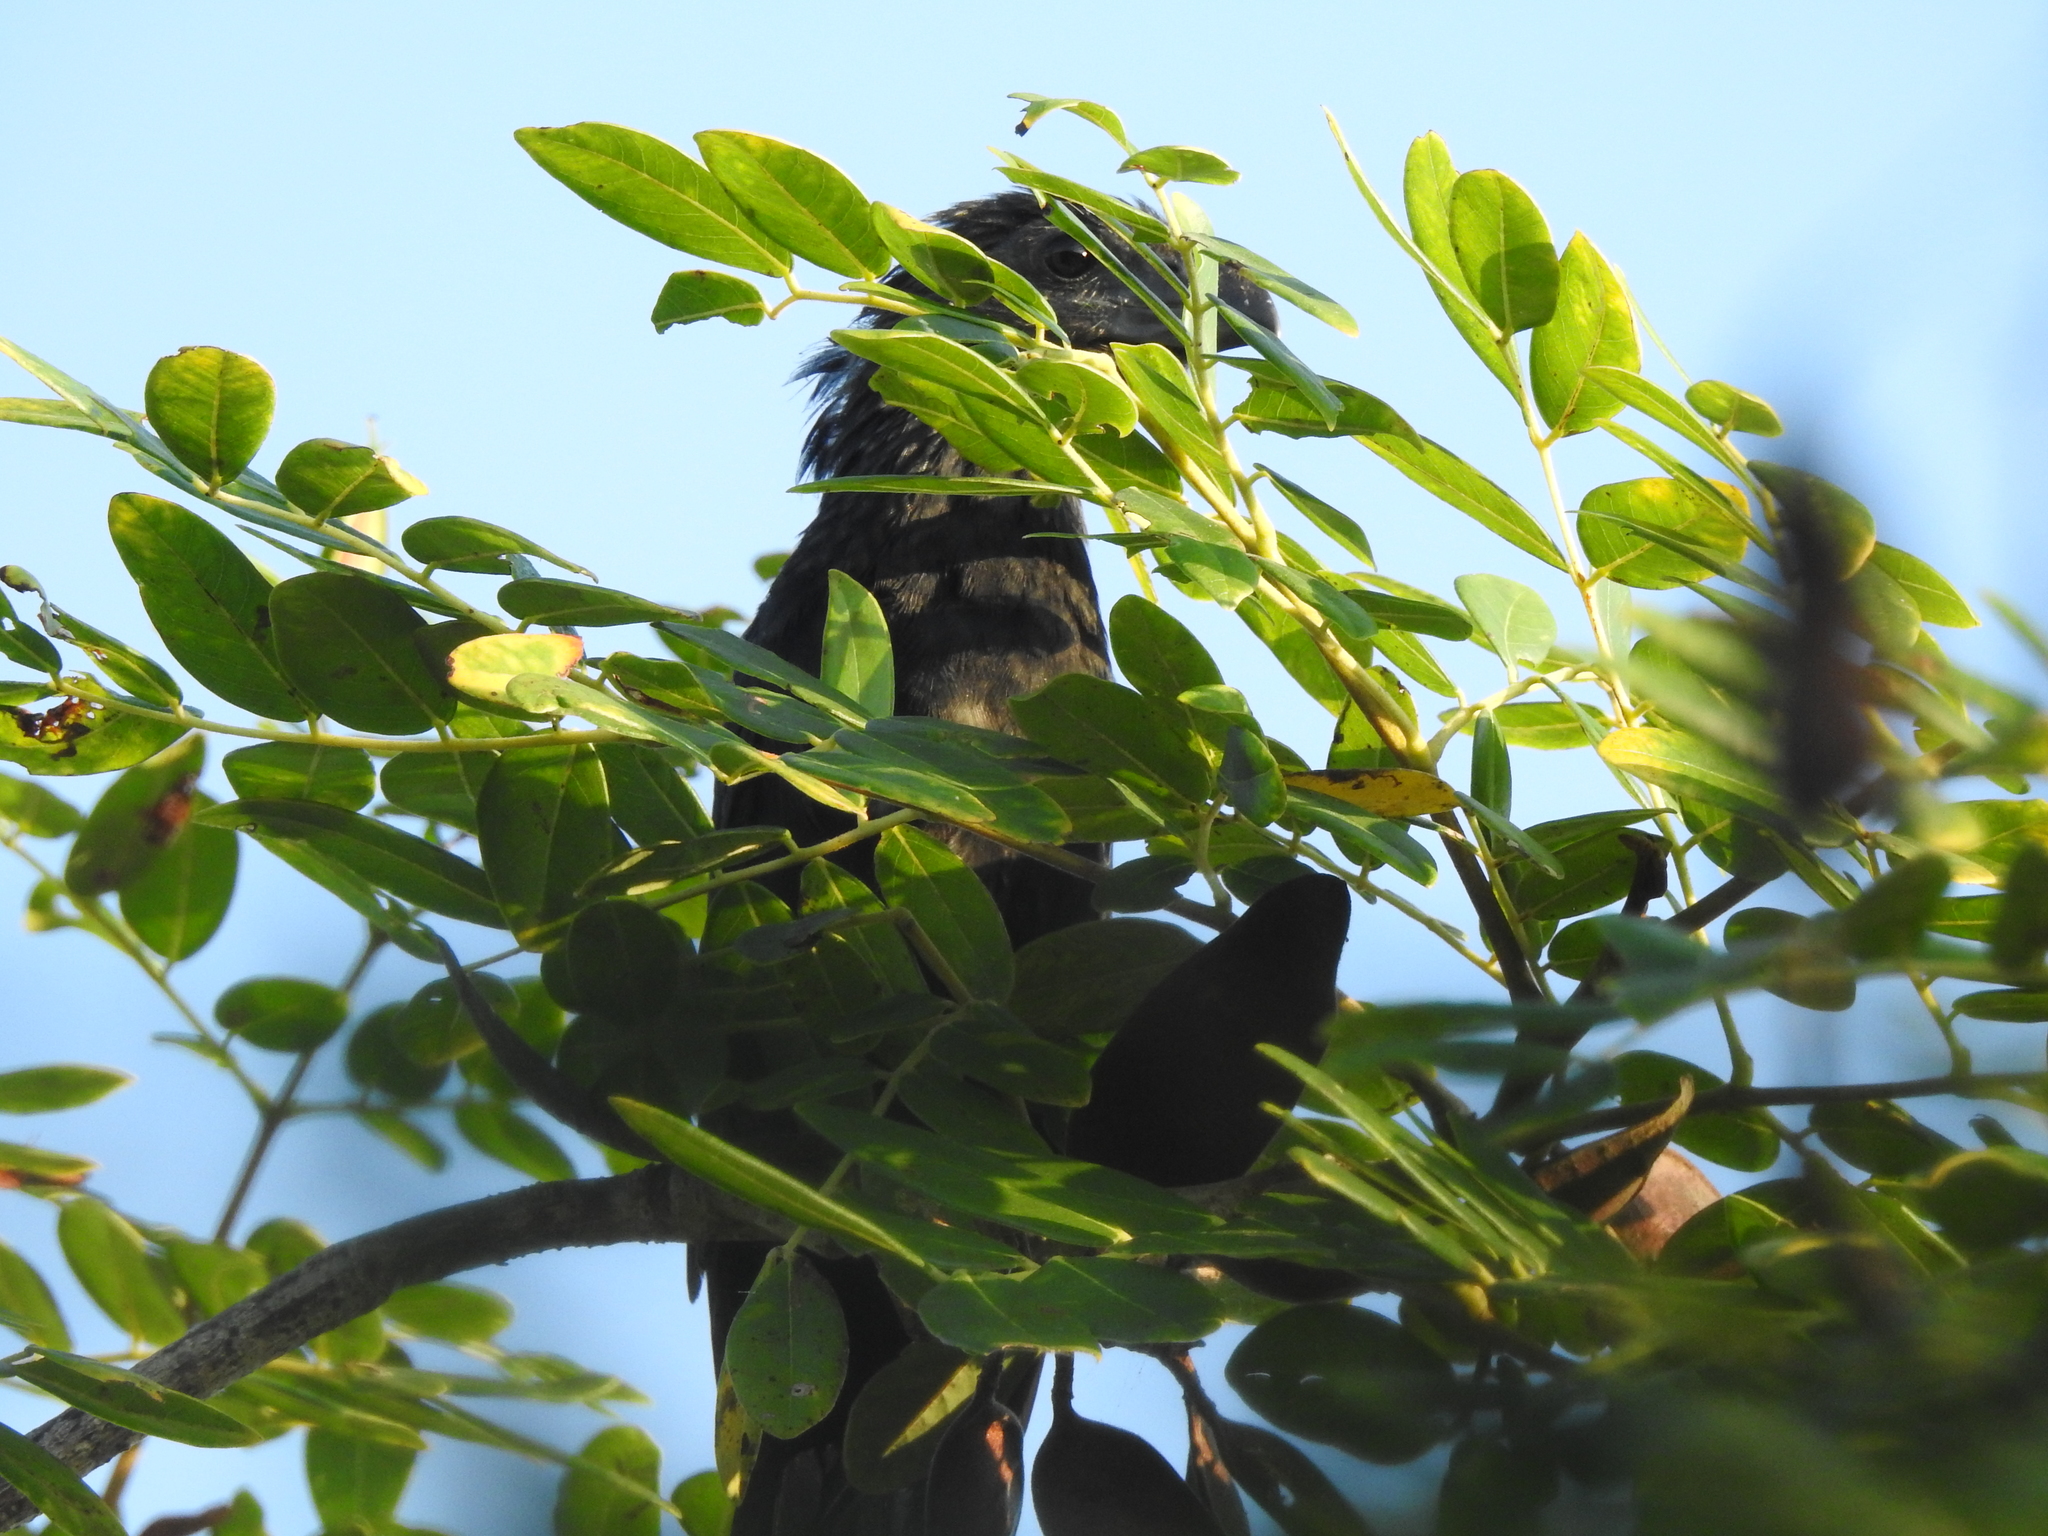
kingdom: Animalia
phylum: Chordata
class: Aves
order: Cuculiformes
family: Cuculidae
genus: Crotophaga
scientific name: Crotophaga sulcirostris
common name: Groove-billed ani
